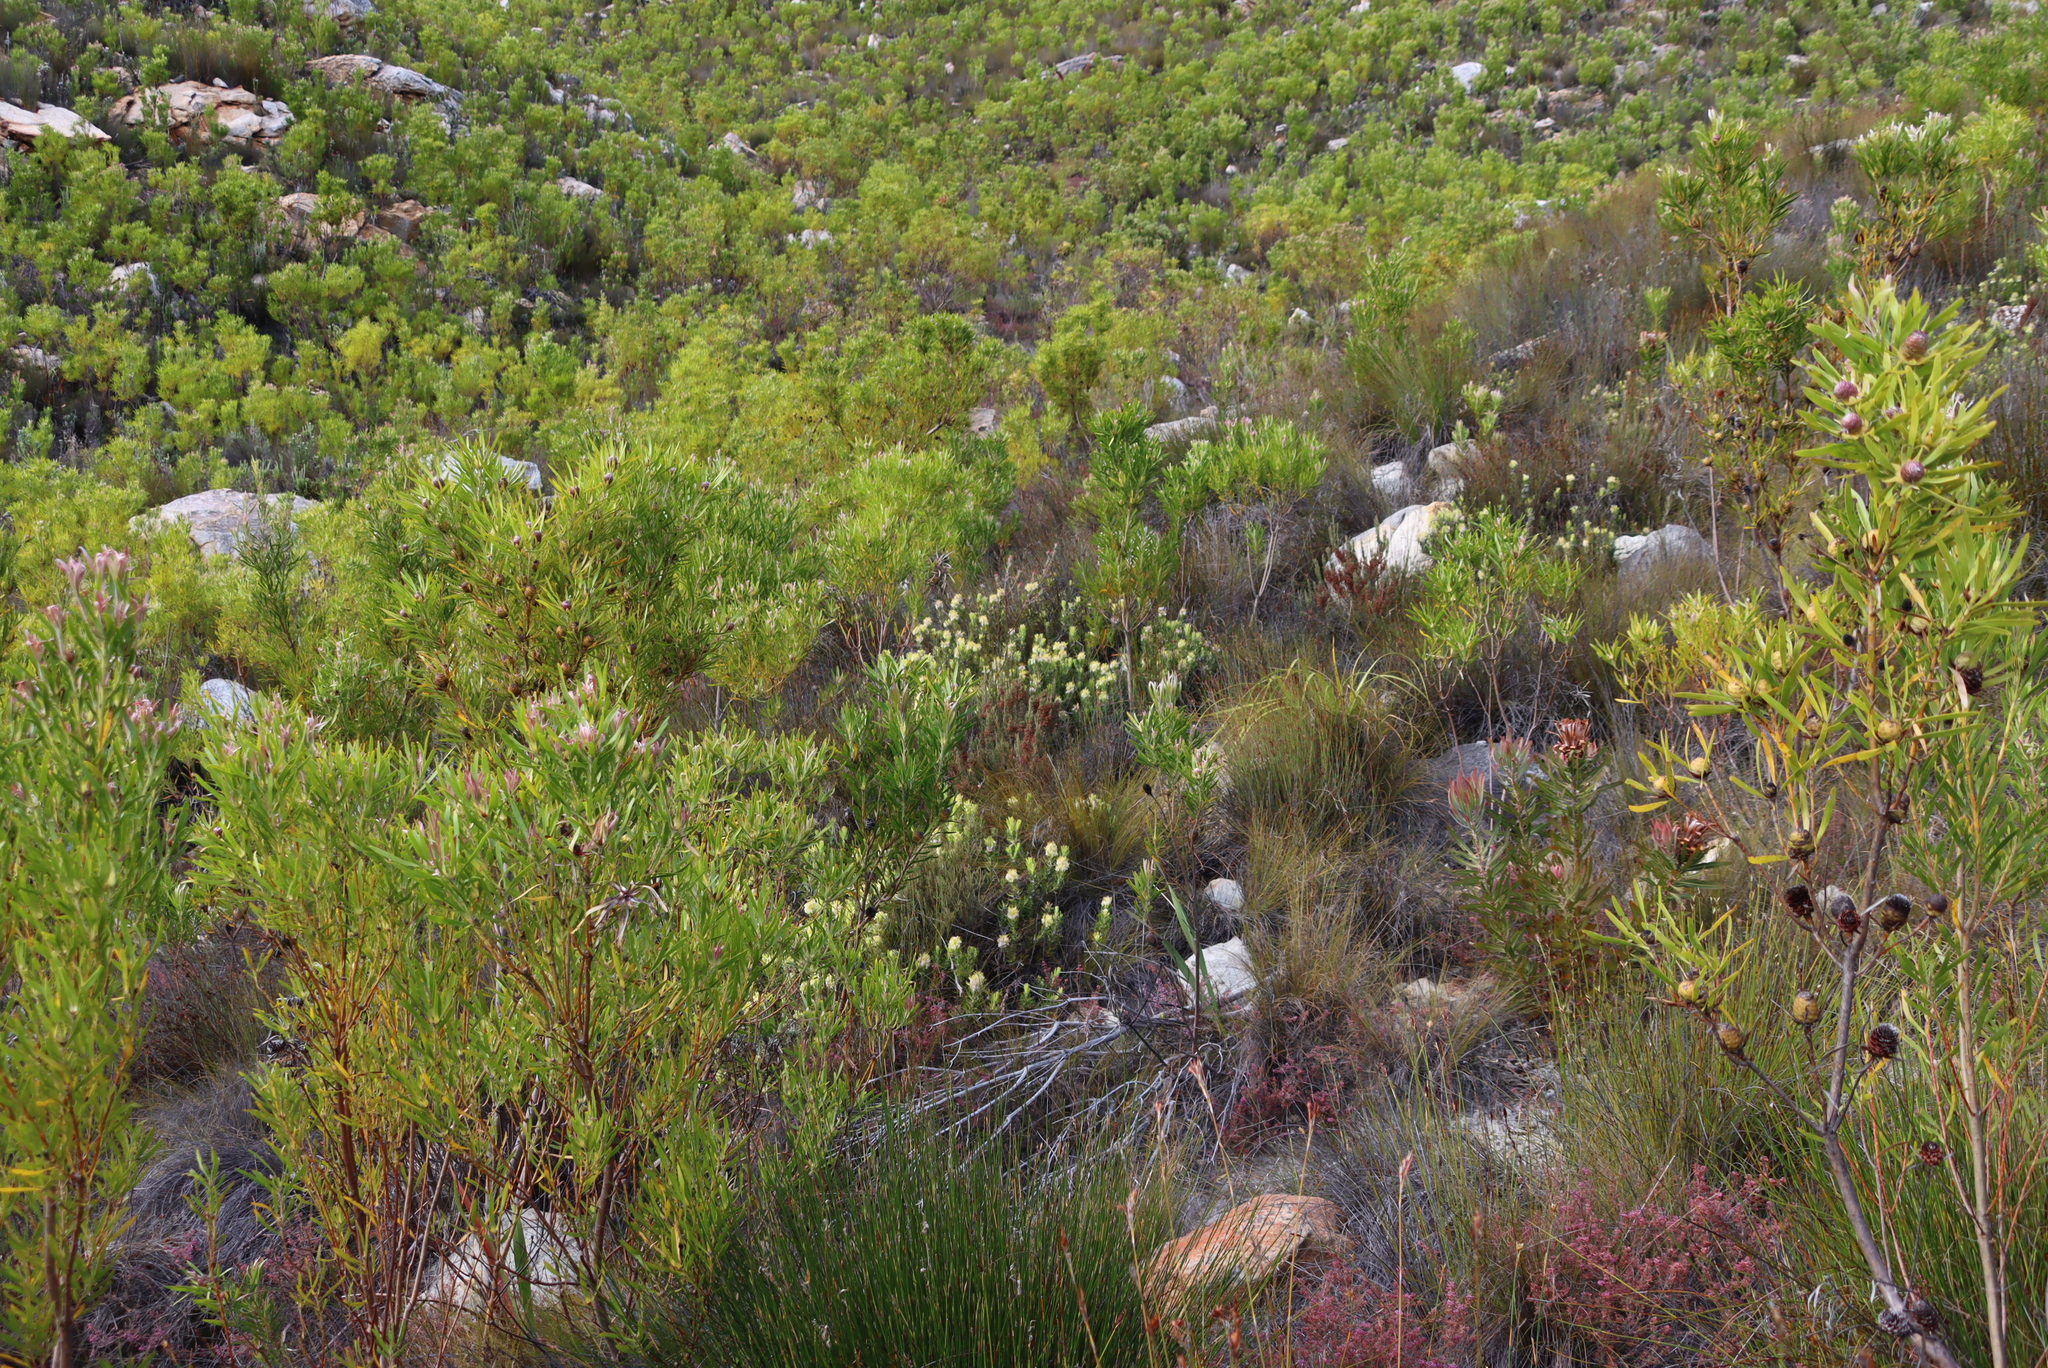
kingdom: Plantae
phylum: Tracheophyta
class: Magnoliopsida
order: Proteales
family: Proteaceae
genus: Mimetes
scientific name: Mimetes cucullatus
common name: Common pagoda
